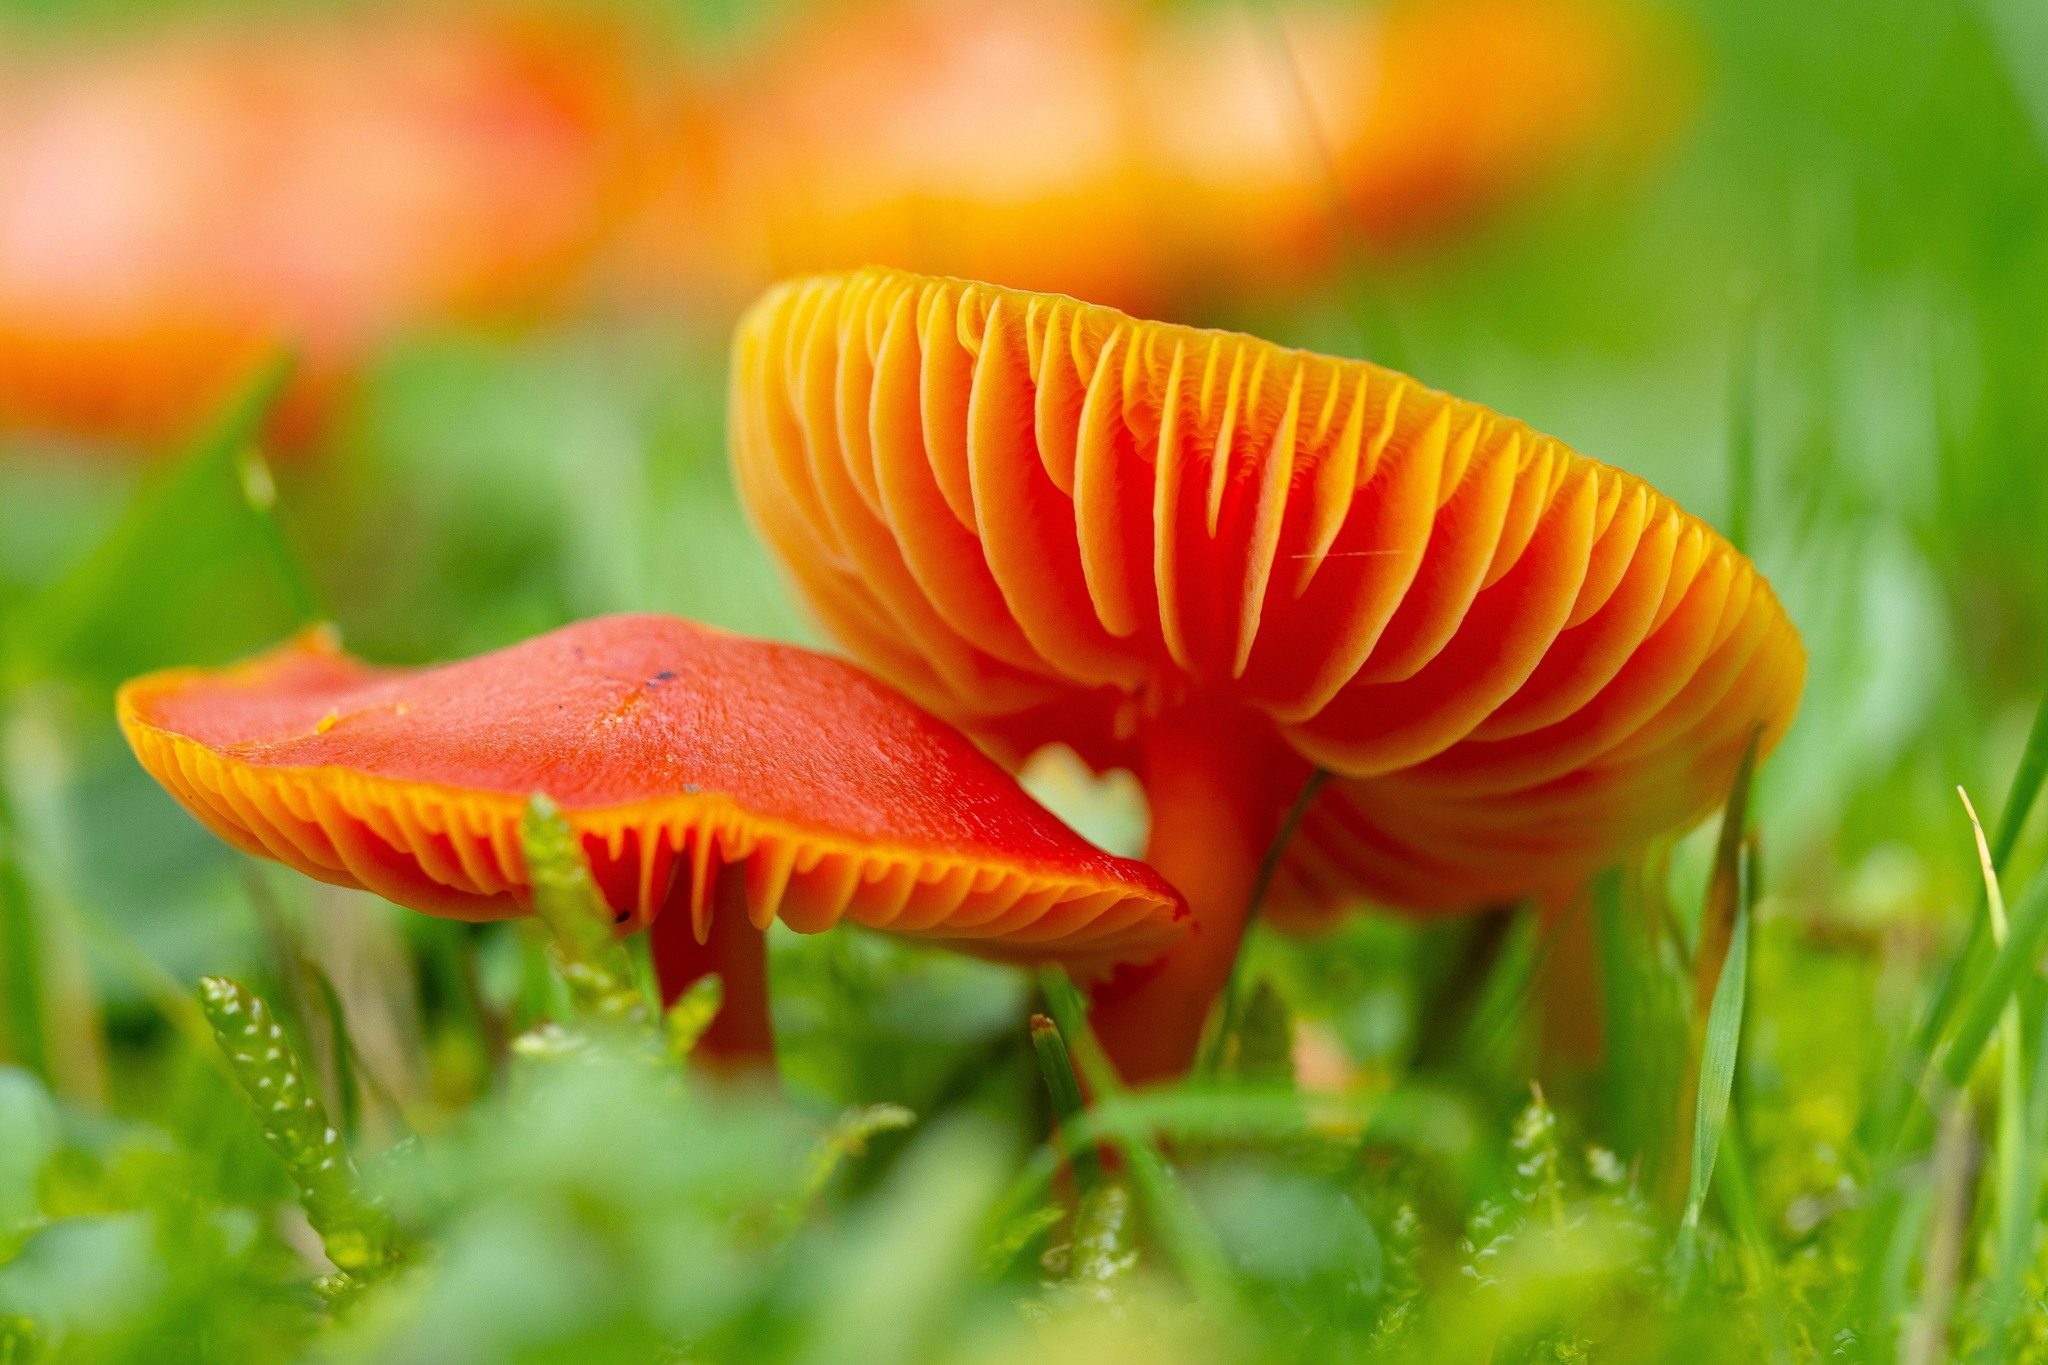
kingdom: Fungi
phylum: Basidiomycota
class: Agaricomycetes
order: Agaricales
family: Hygrophoraceae
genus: Hygrocybe
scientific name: Hygrocybe coccinea
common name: Scarlet hood
